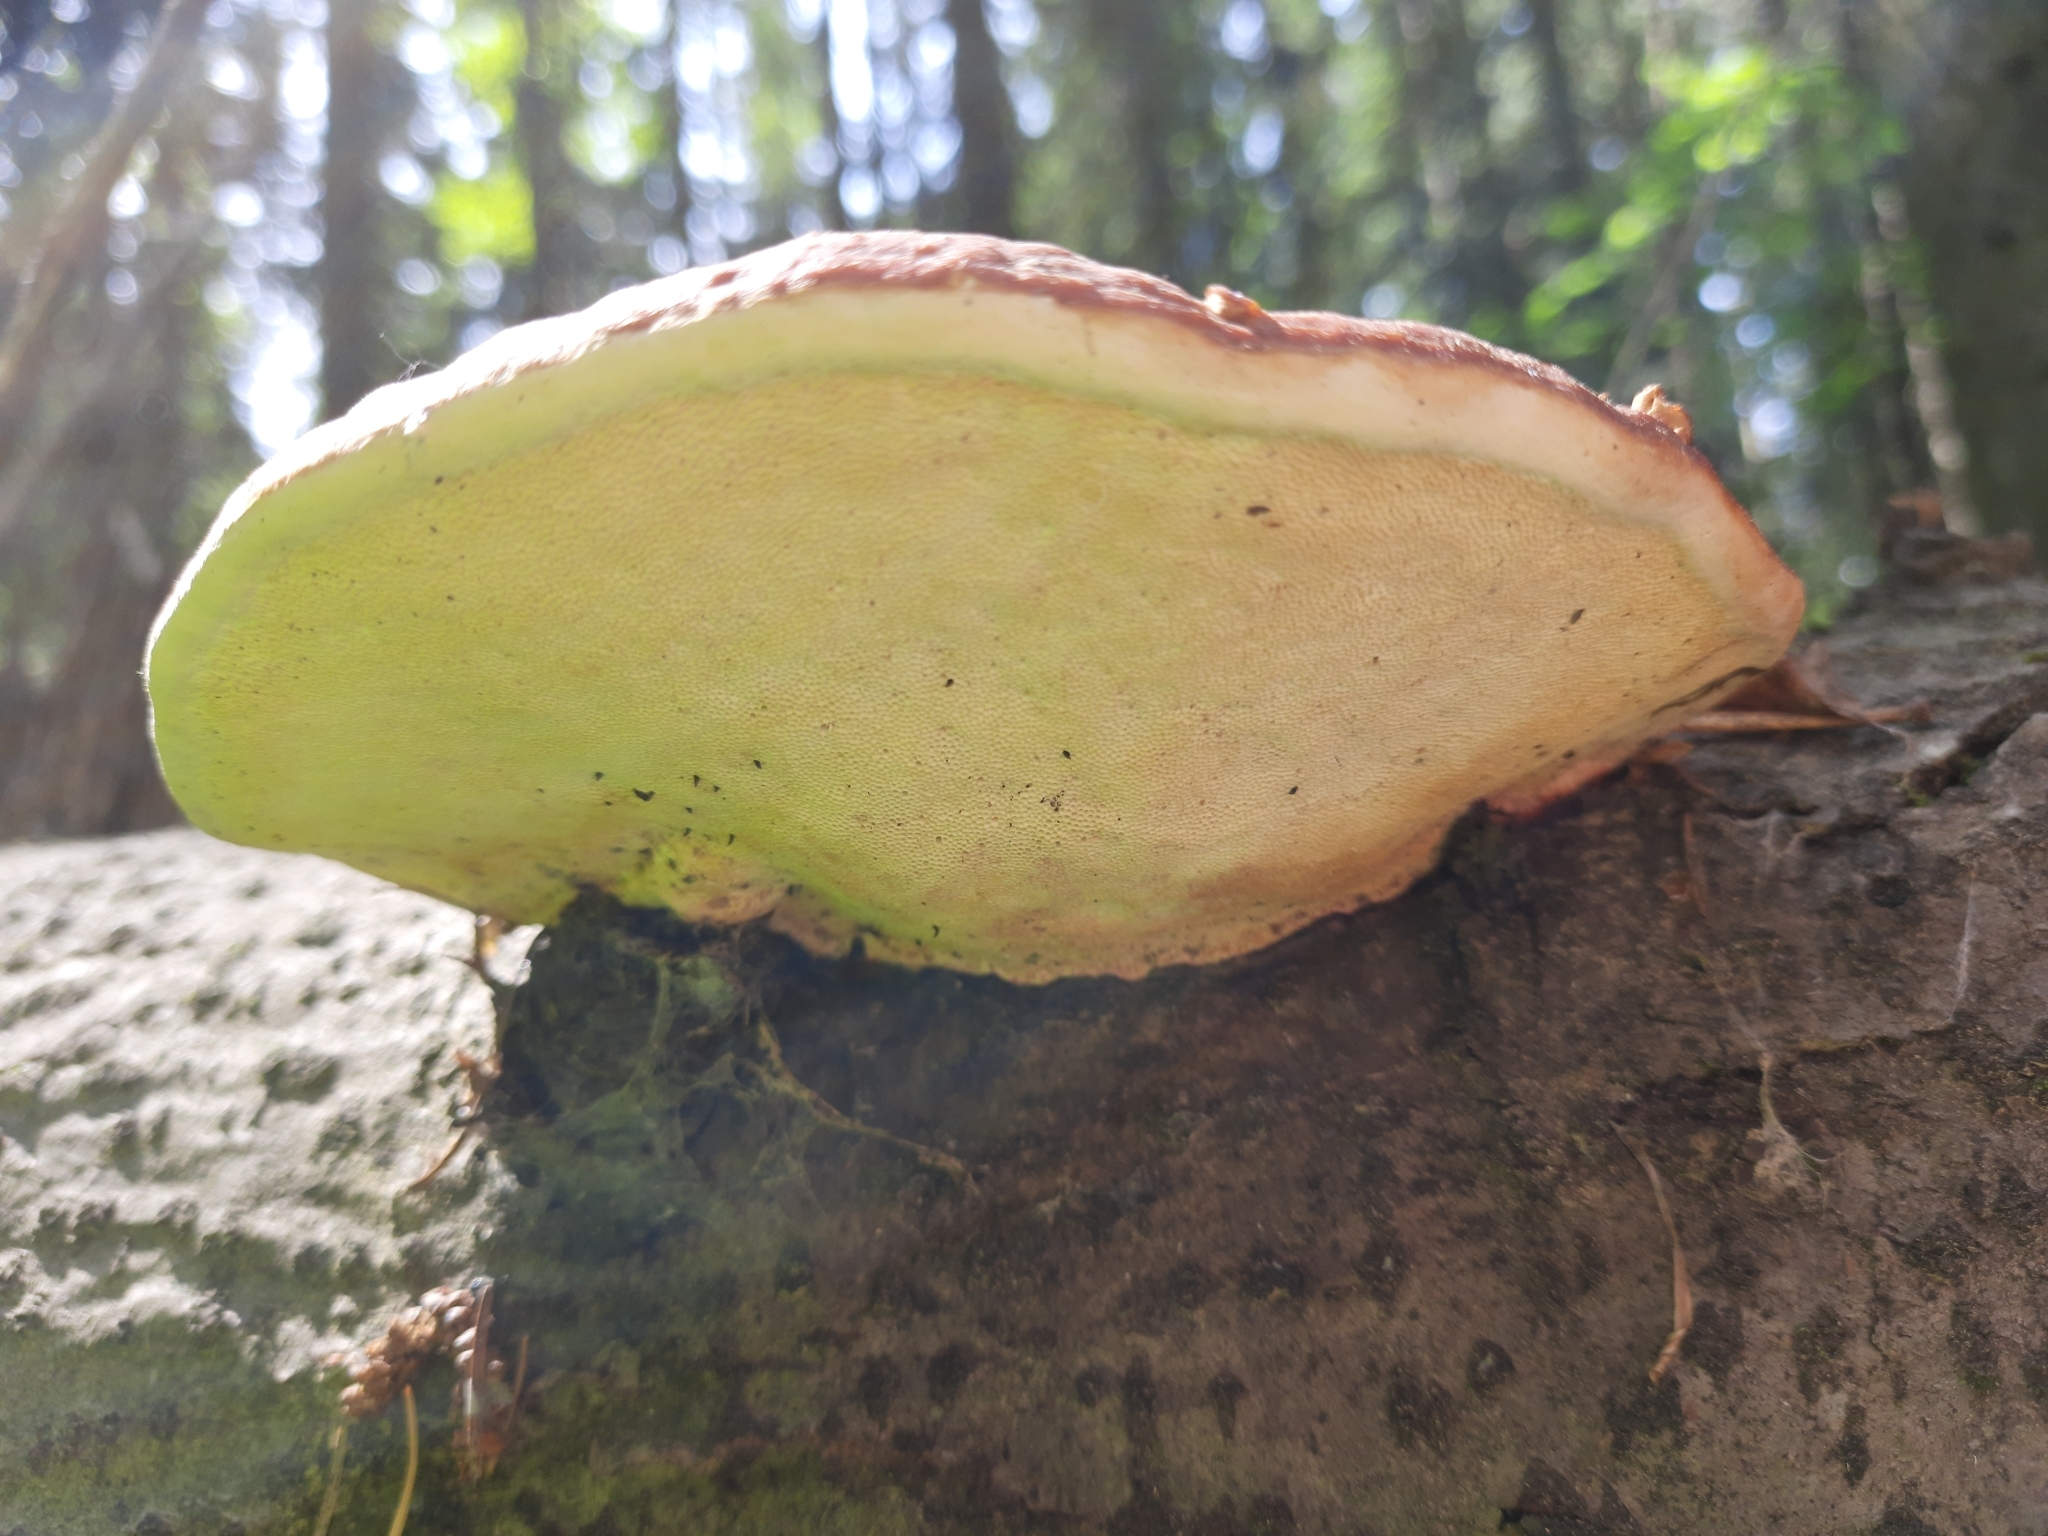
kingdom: Fungi
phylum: Basidiomycota
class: Agaricomycetes
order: Polyporales
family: Fomitopsidaceae
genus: Fomitopsis
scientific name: Fomitopsis pinicola
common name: Red-belted bracket
